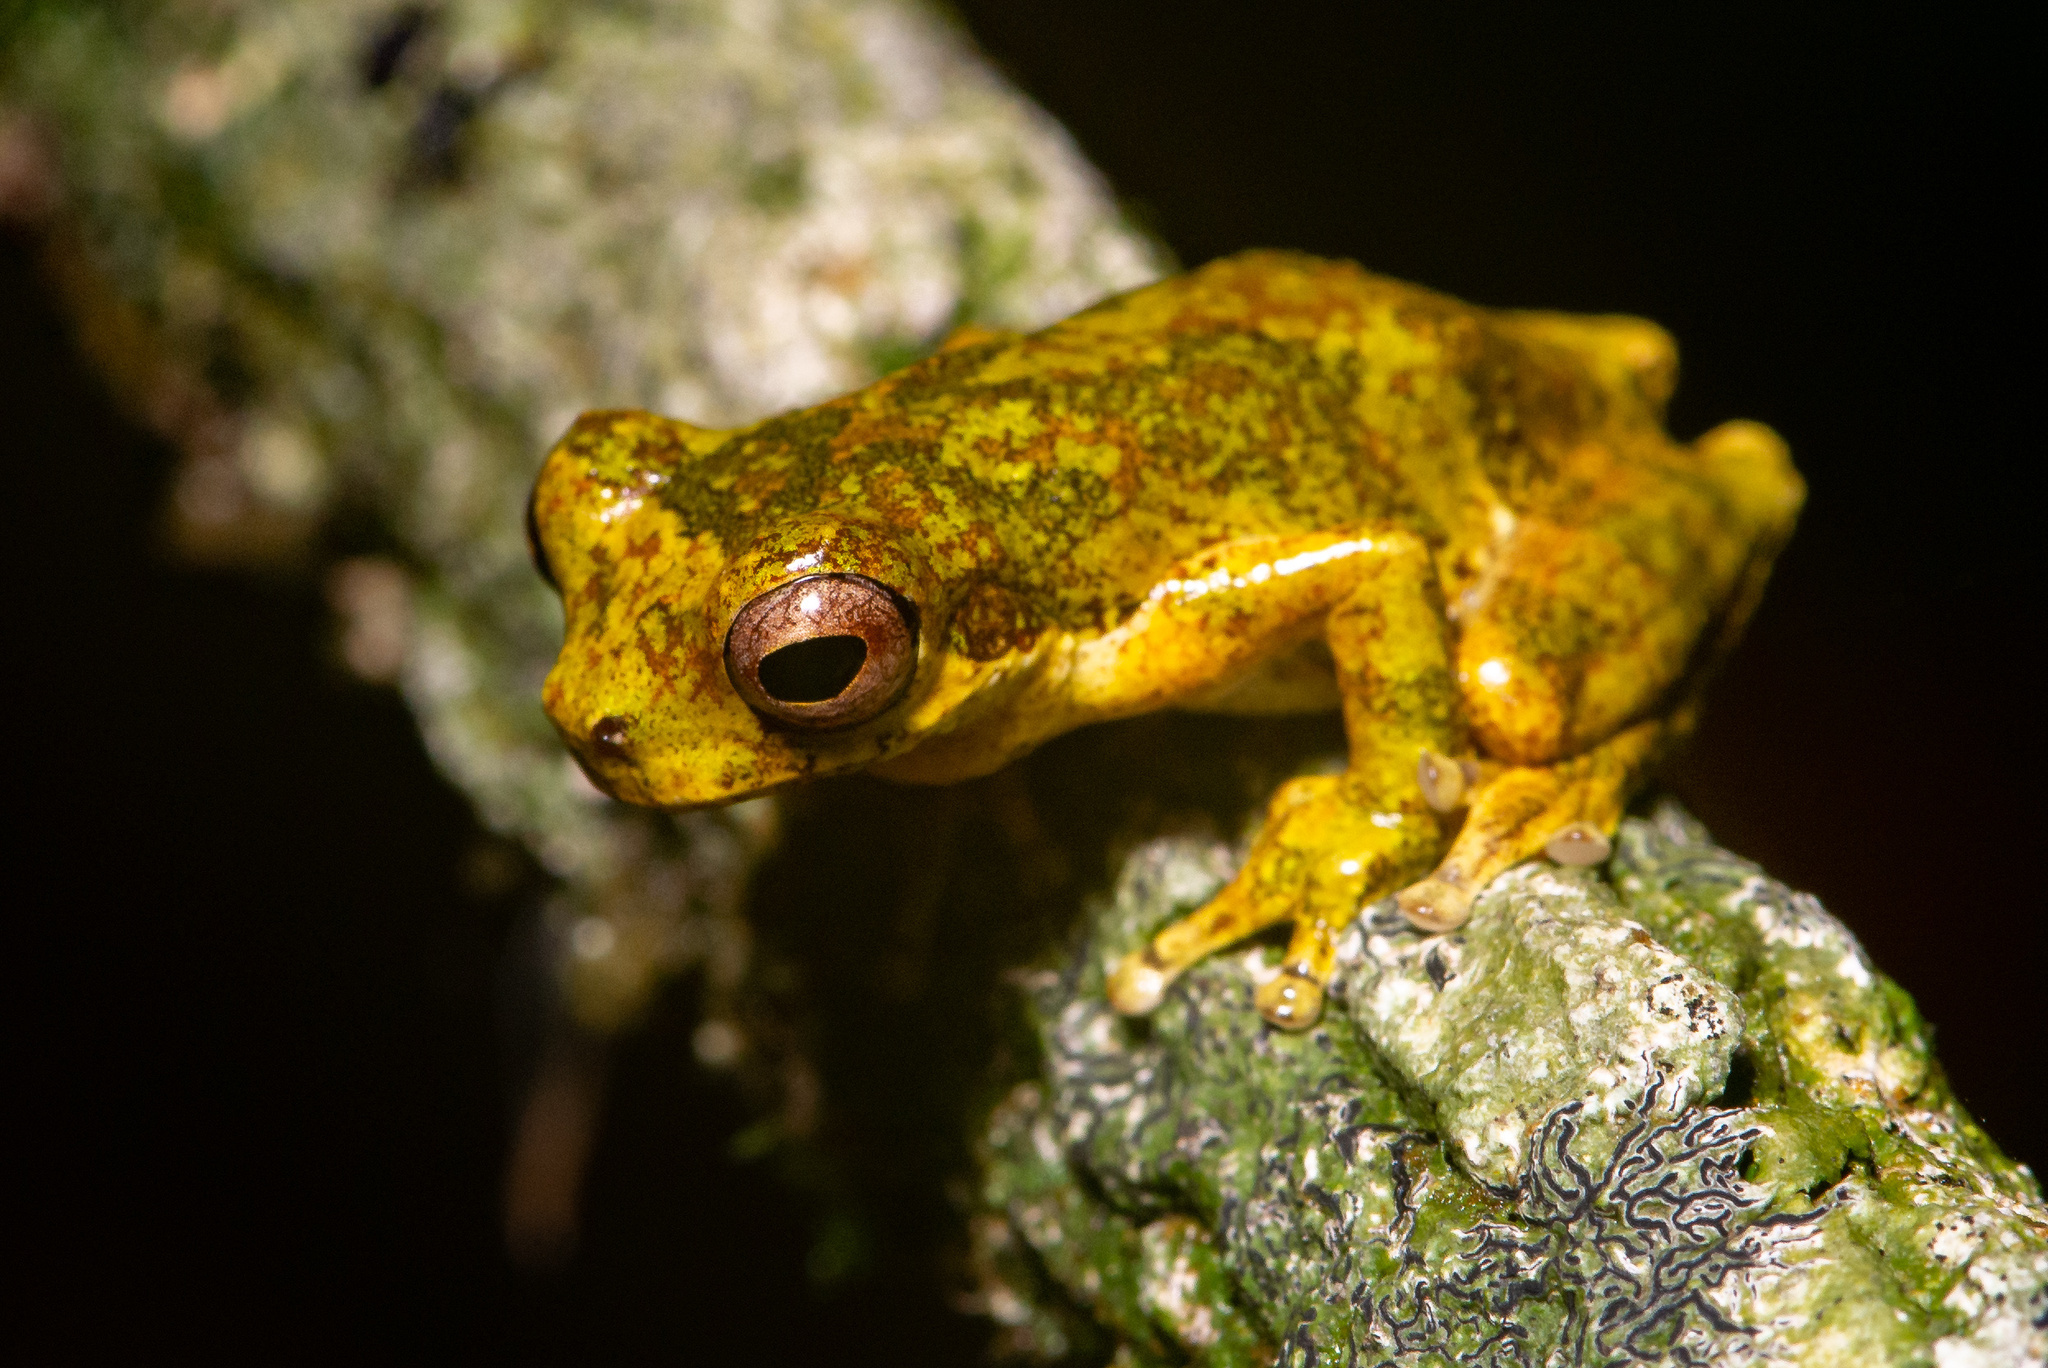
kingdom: Animalia
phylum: Chordata
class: Amphibia
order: Anura
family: Hylidae
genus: Dendropsophus
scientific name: Dendropsophus microps
